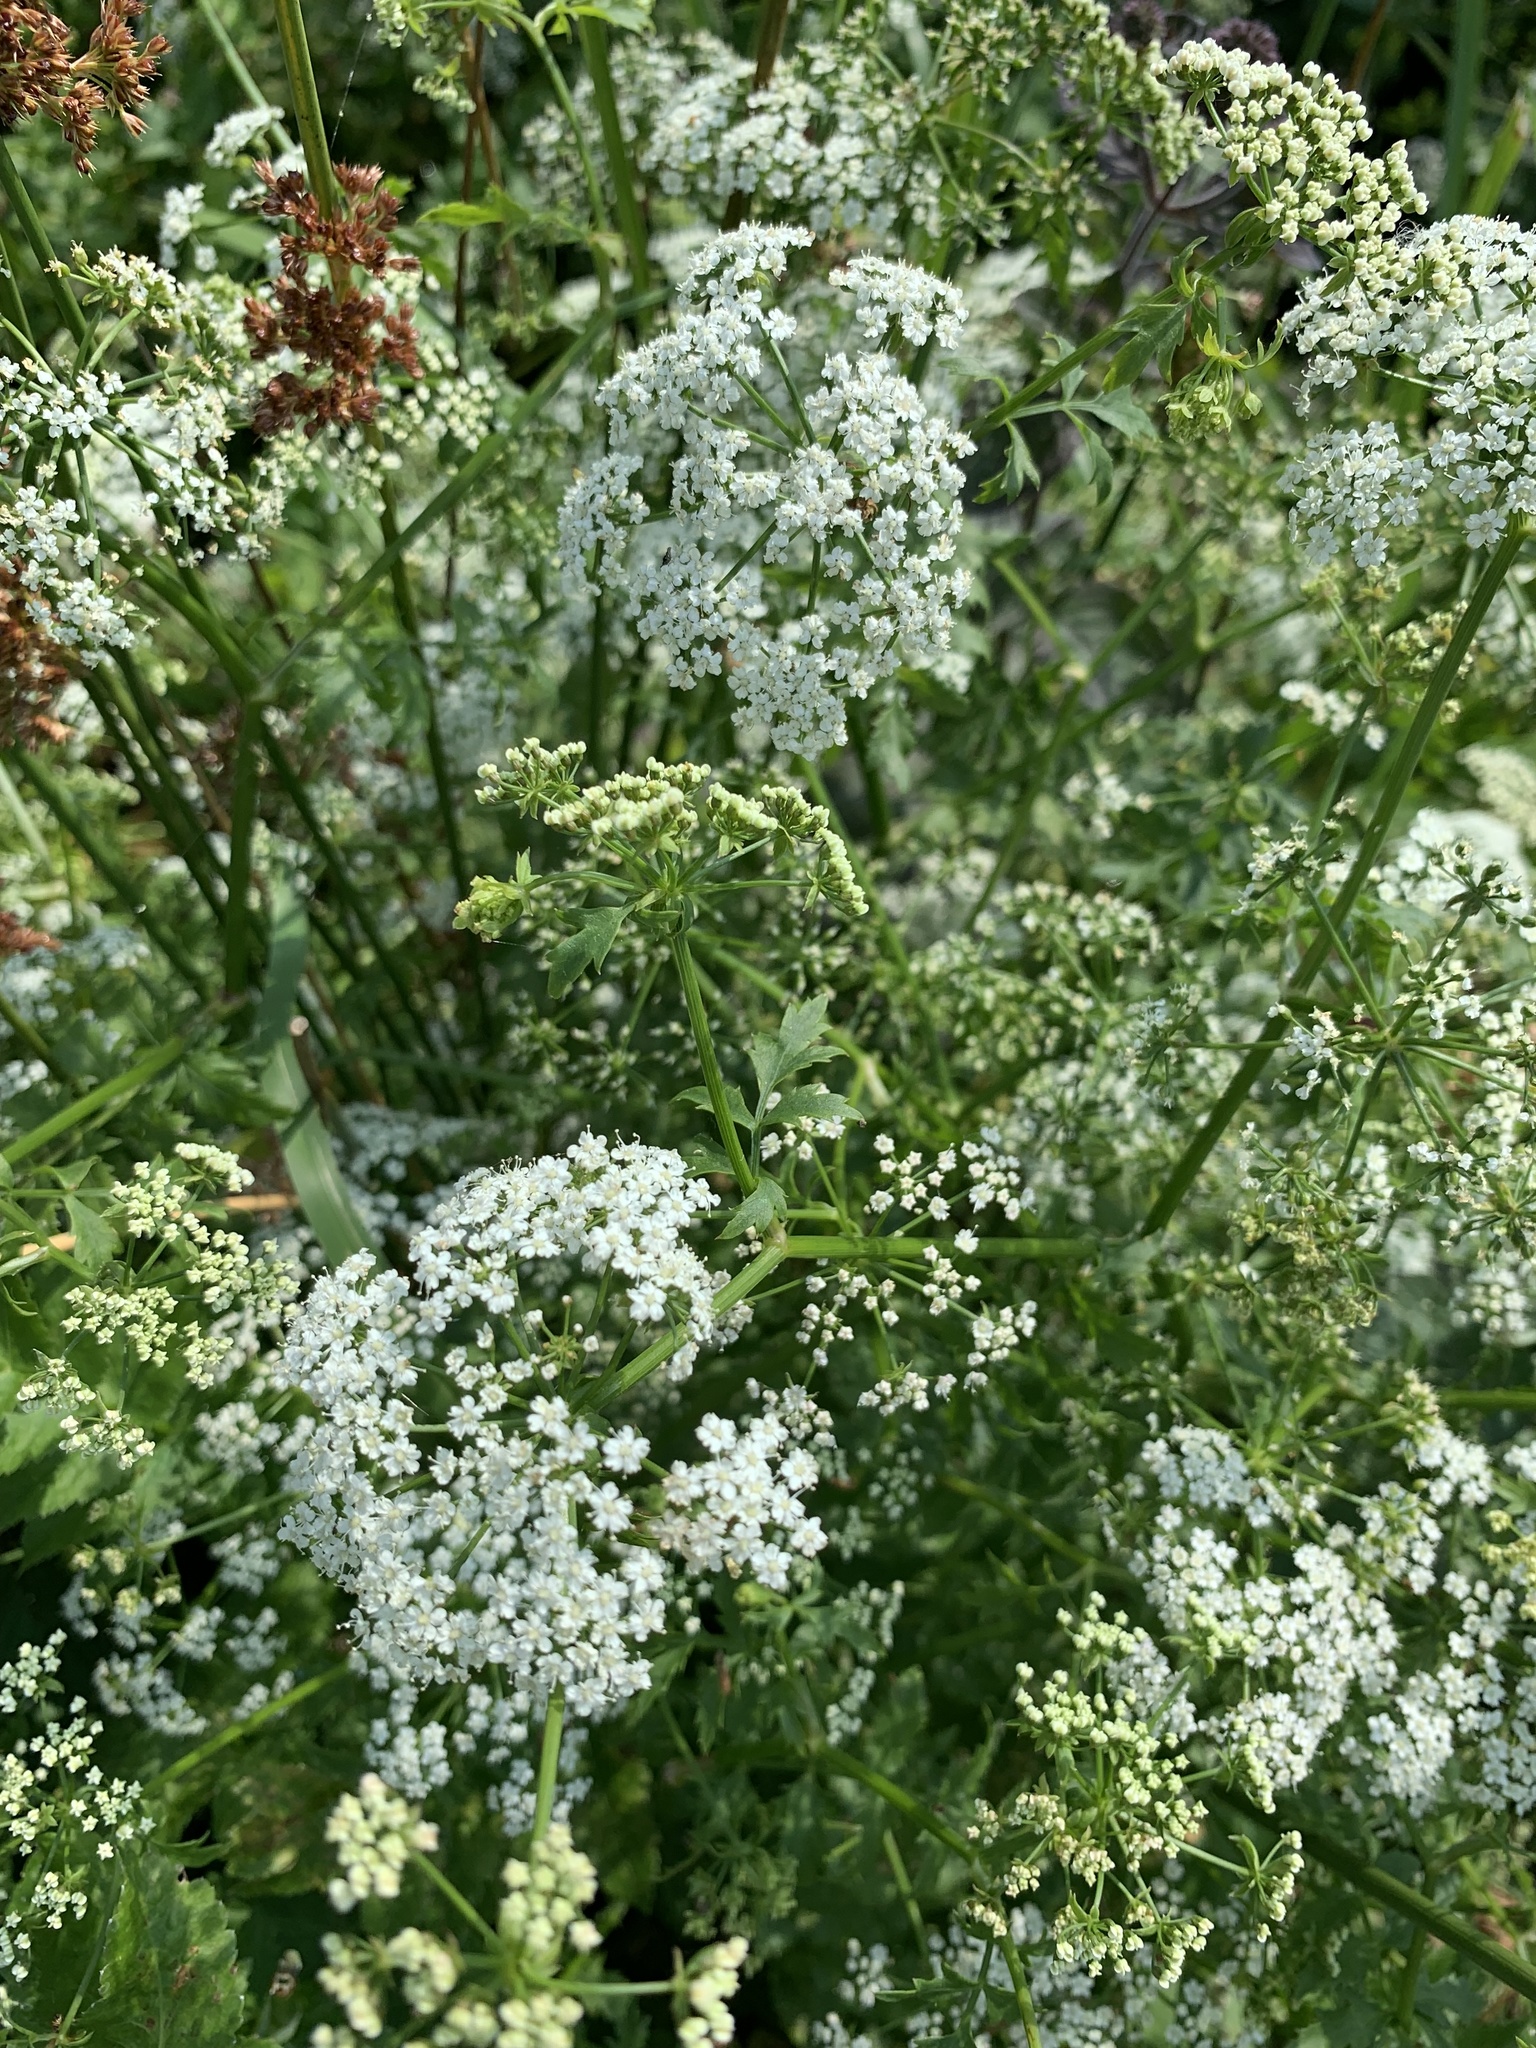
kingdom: Plantae
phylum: Tracheophyta
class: Magnoliopsida
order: Apiales
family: Apiaceae
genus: Berula
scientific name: Berula erecta
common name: Lesser water-parsnip
